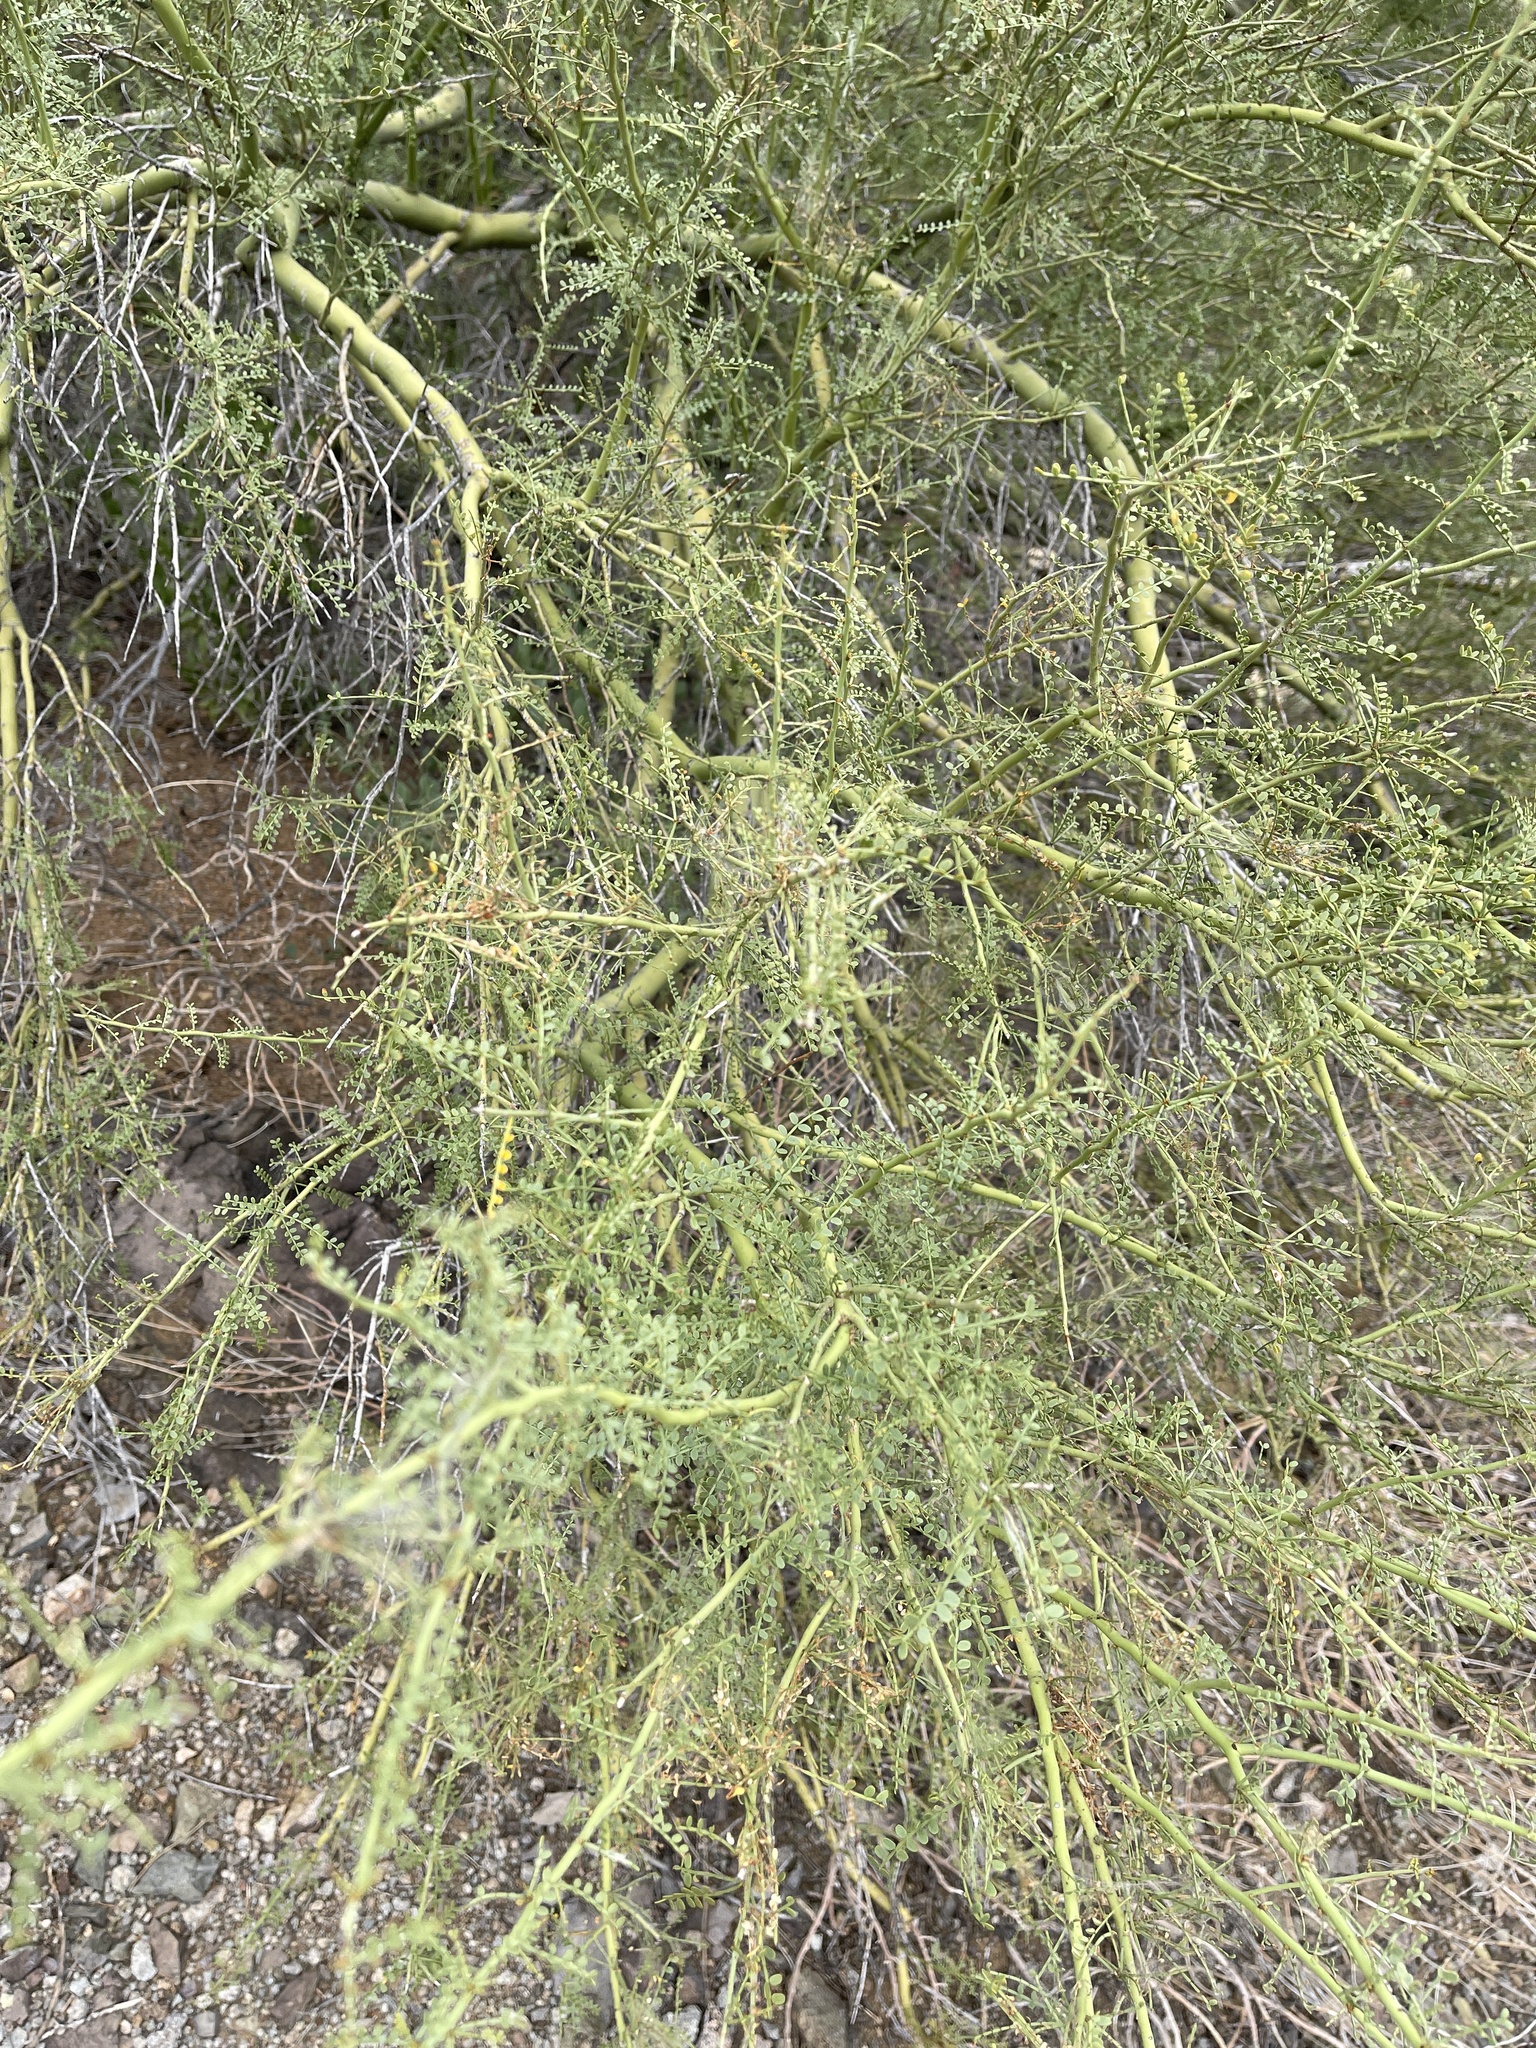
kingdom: Plantae
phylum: Tracheophyta
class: Magnoliopsida
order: Fabales
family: Fabaceae
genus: Parkinsonia
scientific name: Parkinsonia microphylla
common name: Yellow paloverde
